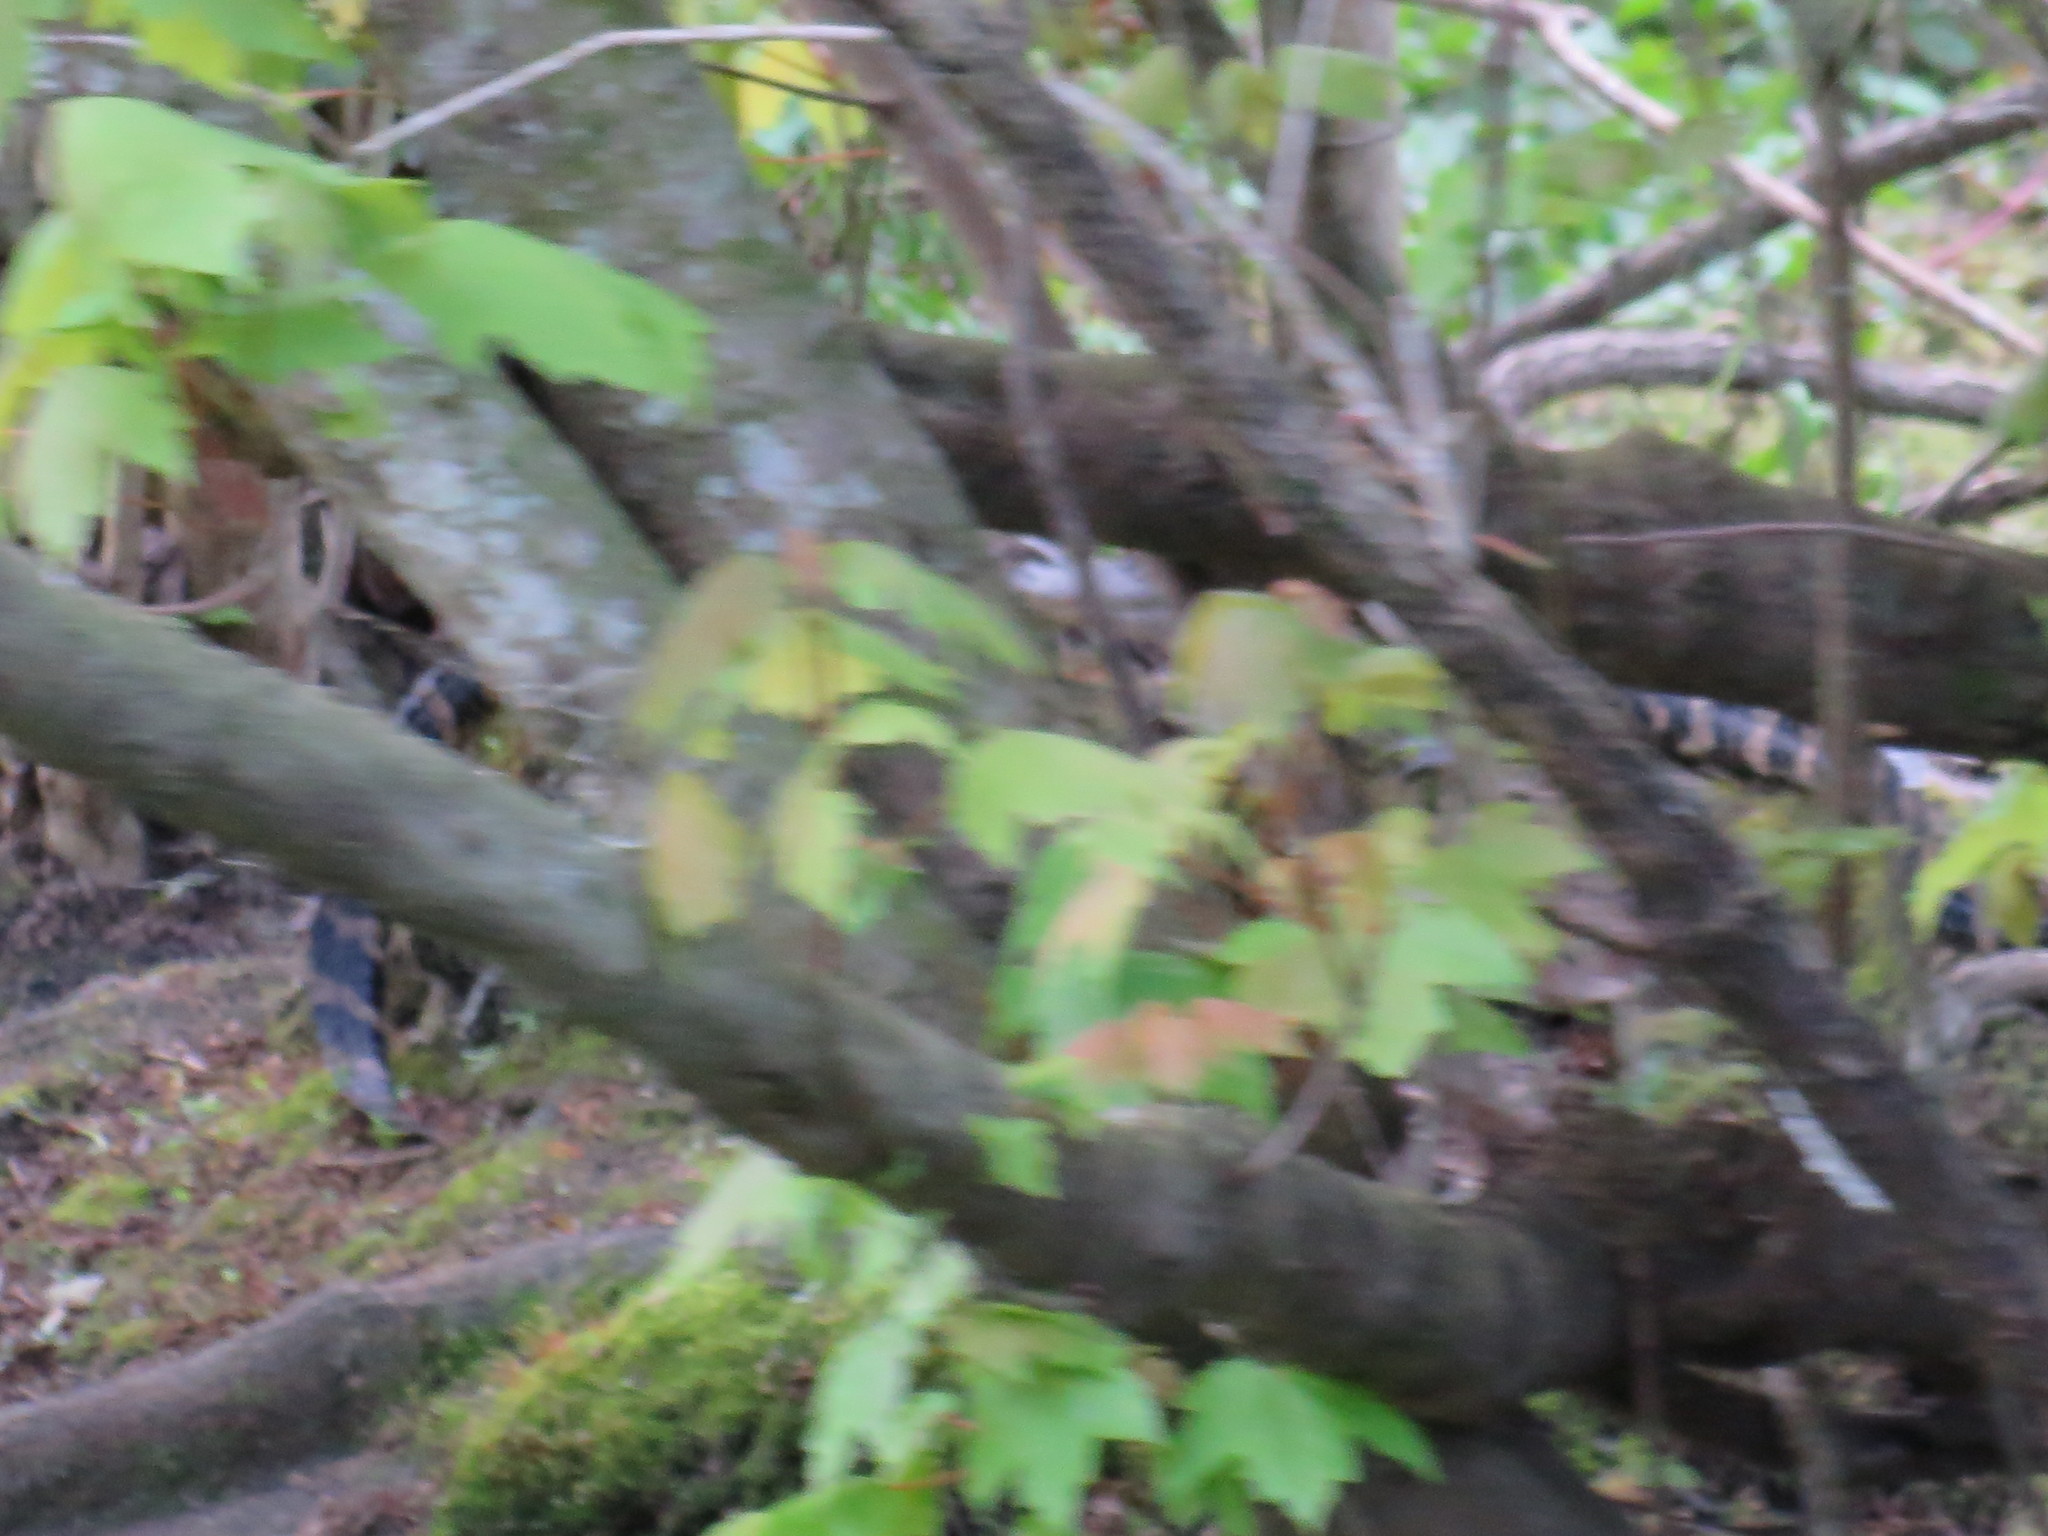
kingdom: Animalia
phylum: Chordata
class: Crocodylia
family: Alligatoridae
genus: Alligator
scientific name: Alligator mississippiensis
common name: American alligator
